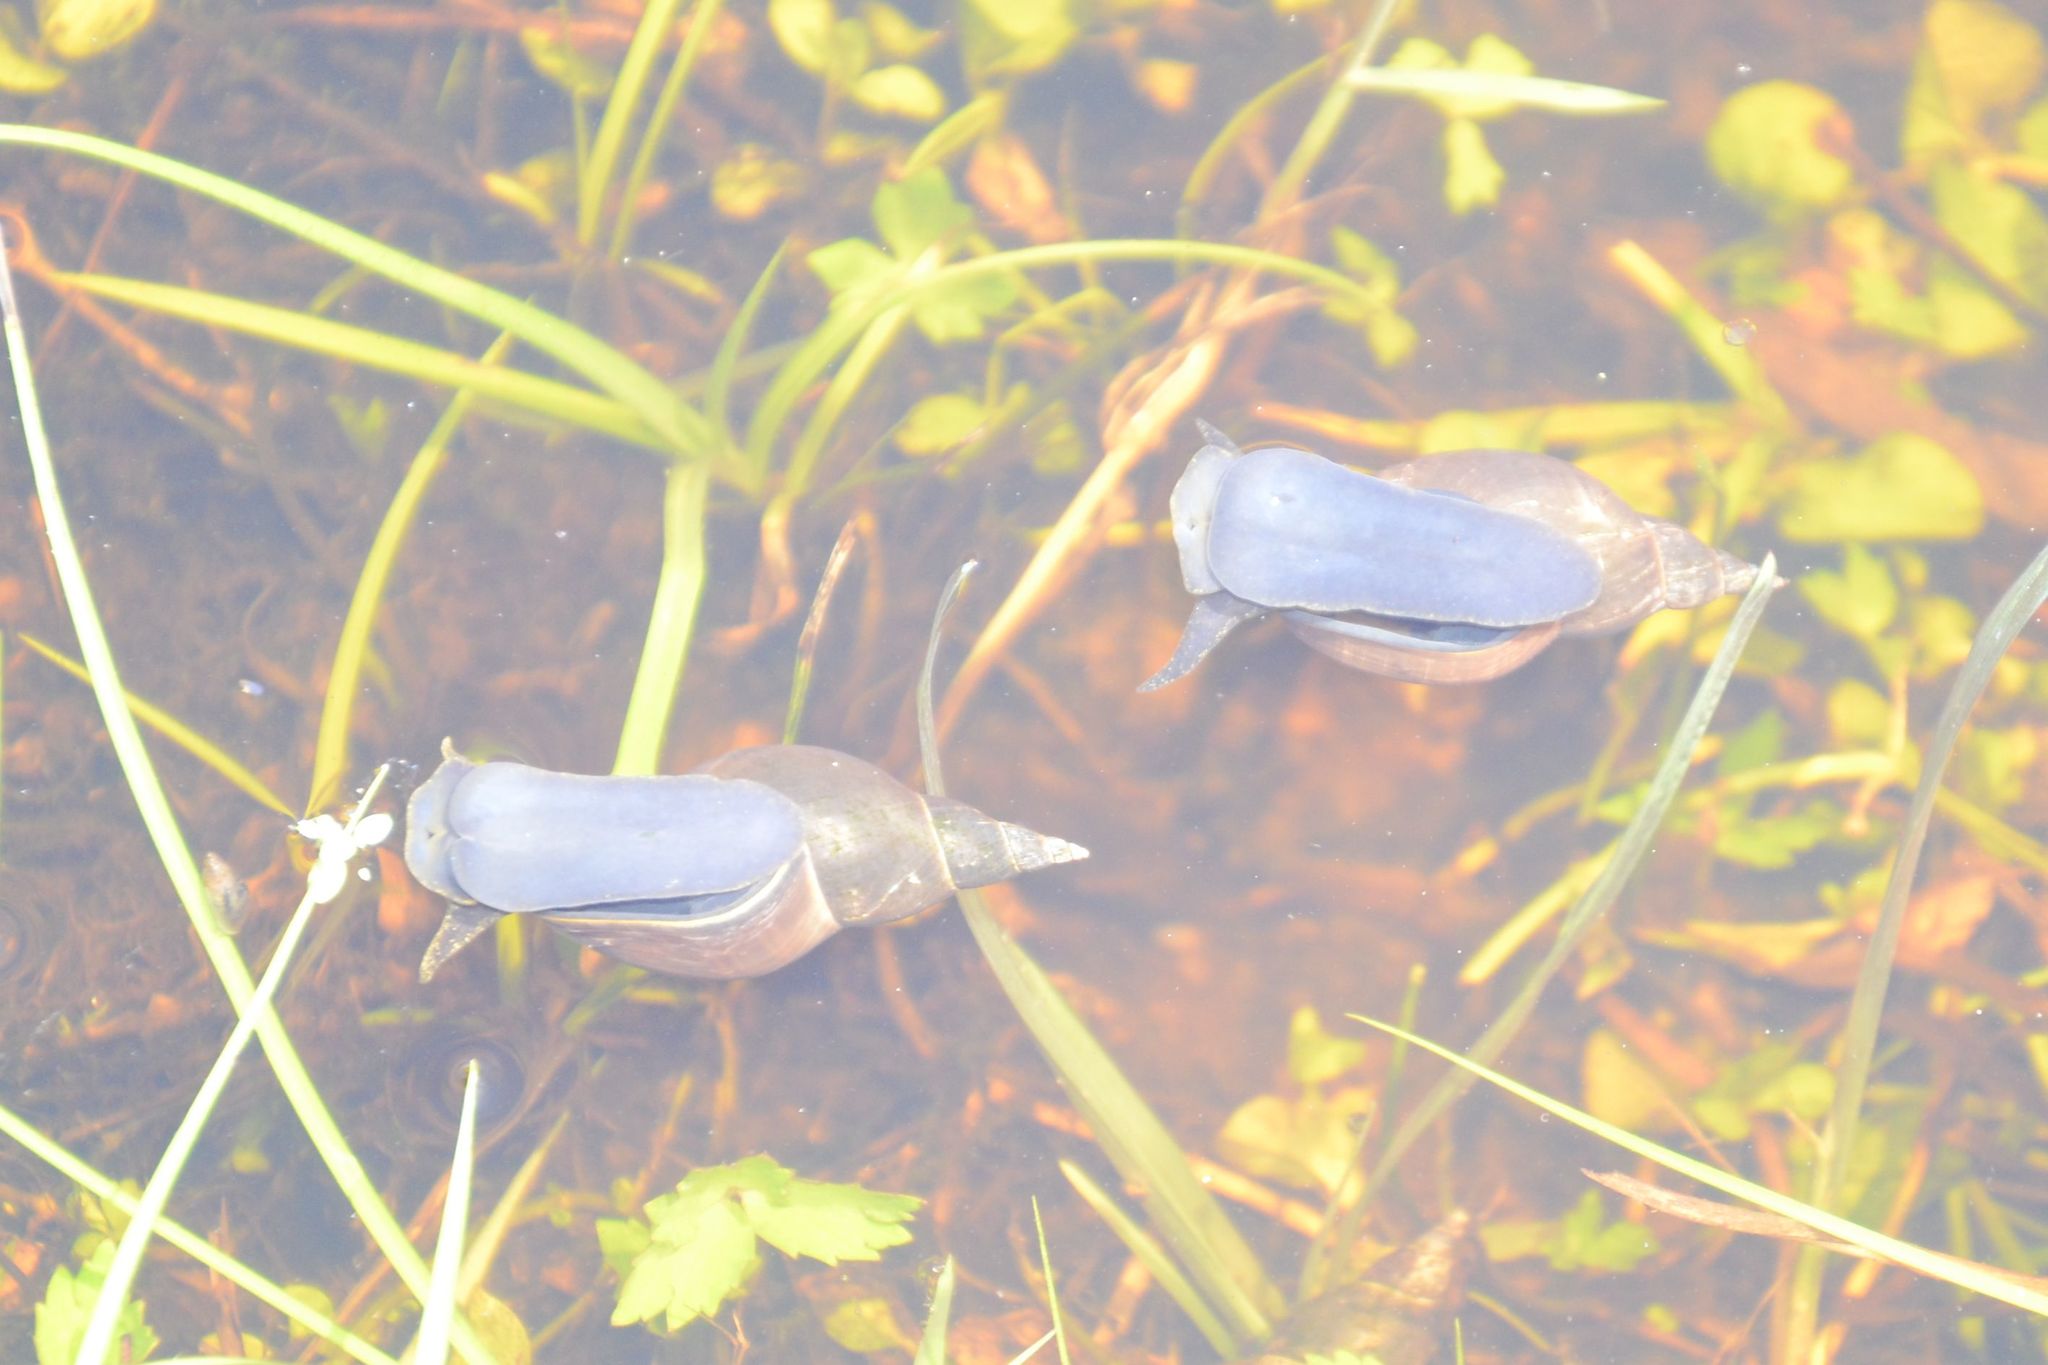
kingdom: Animalia
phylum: Mollusca
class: Gastropoda
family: Lymnaeidae
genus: Lymnaea
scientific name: Lymnaea stagnalis
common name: Great pond snail
